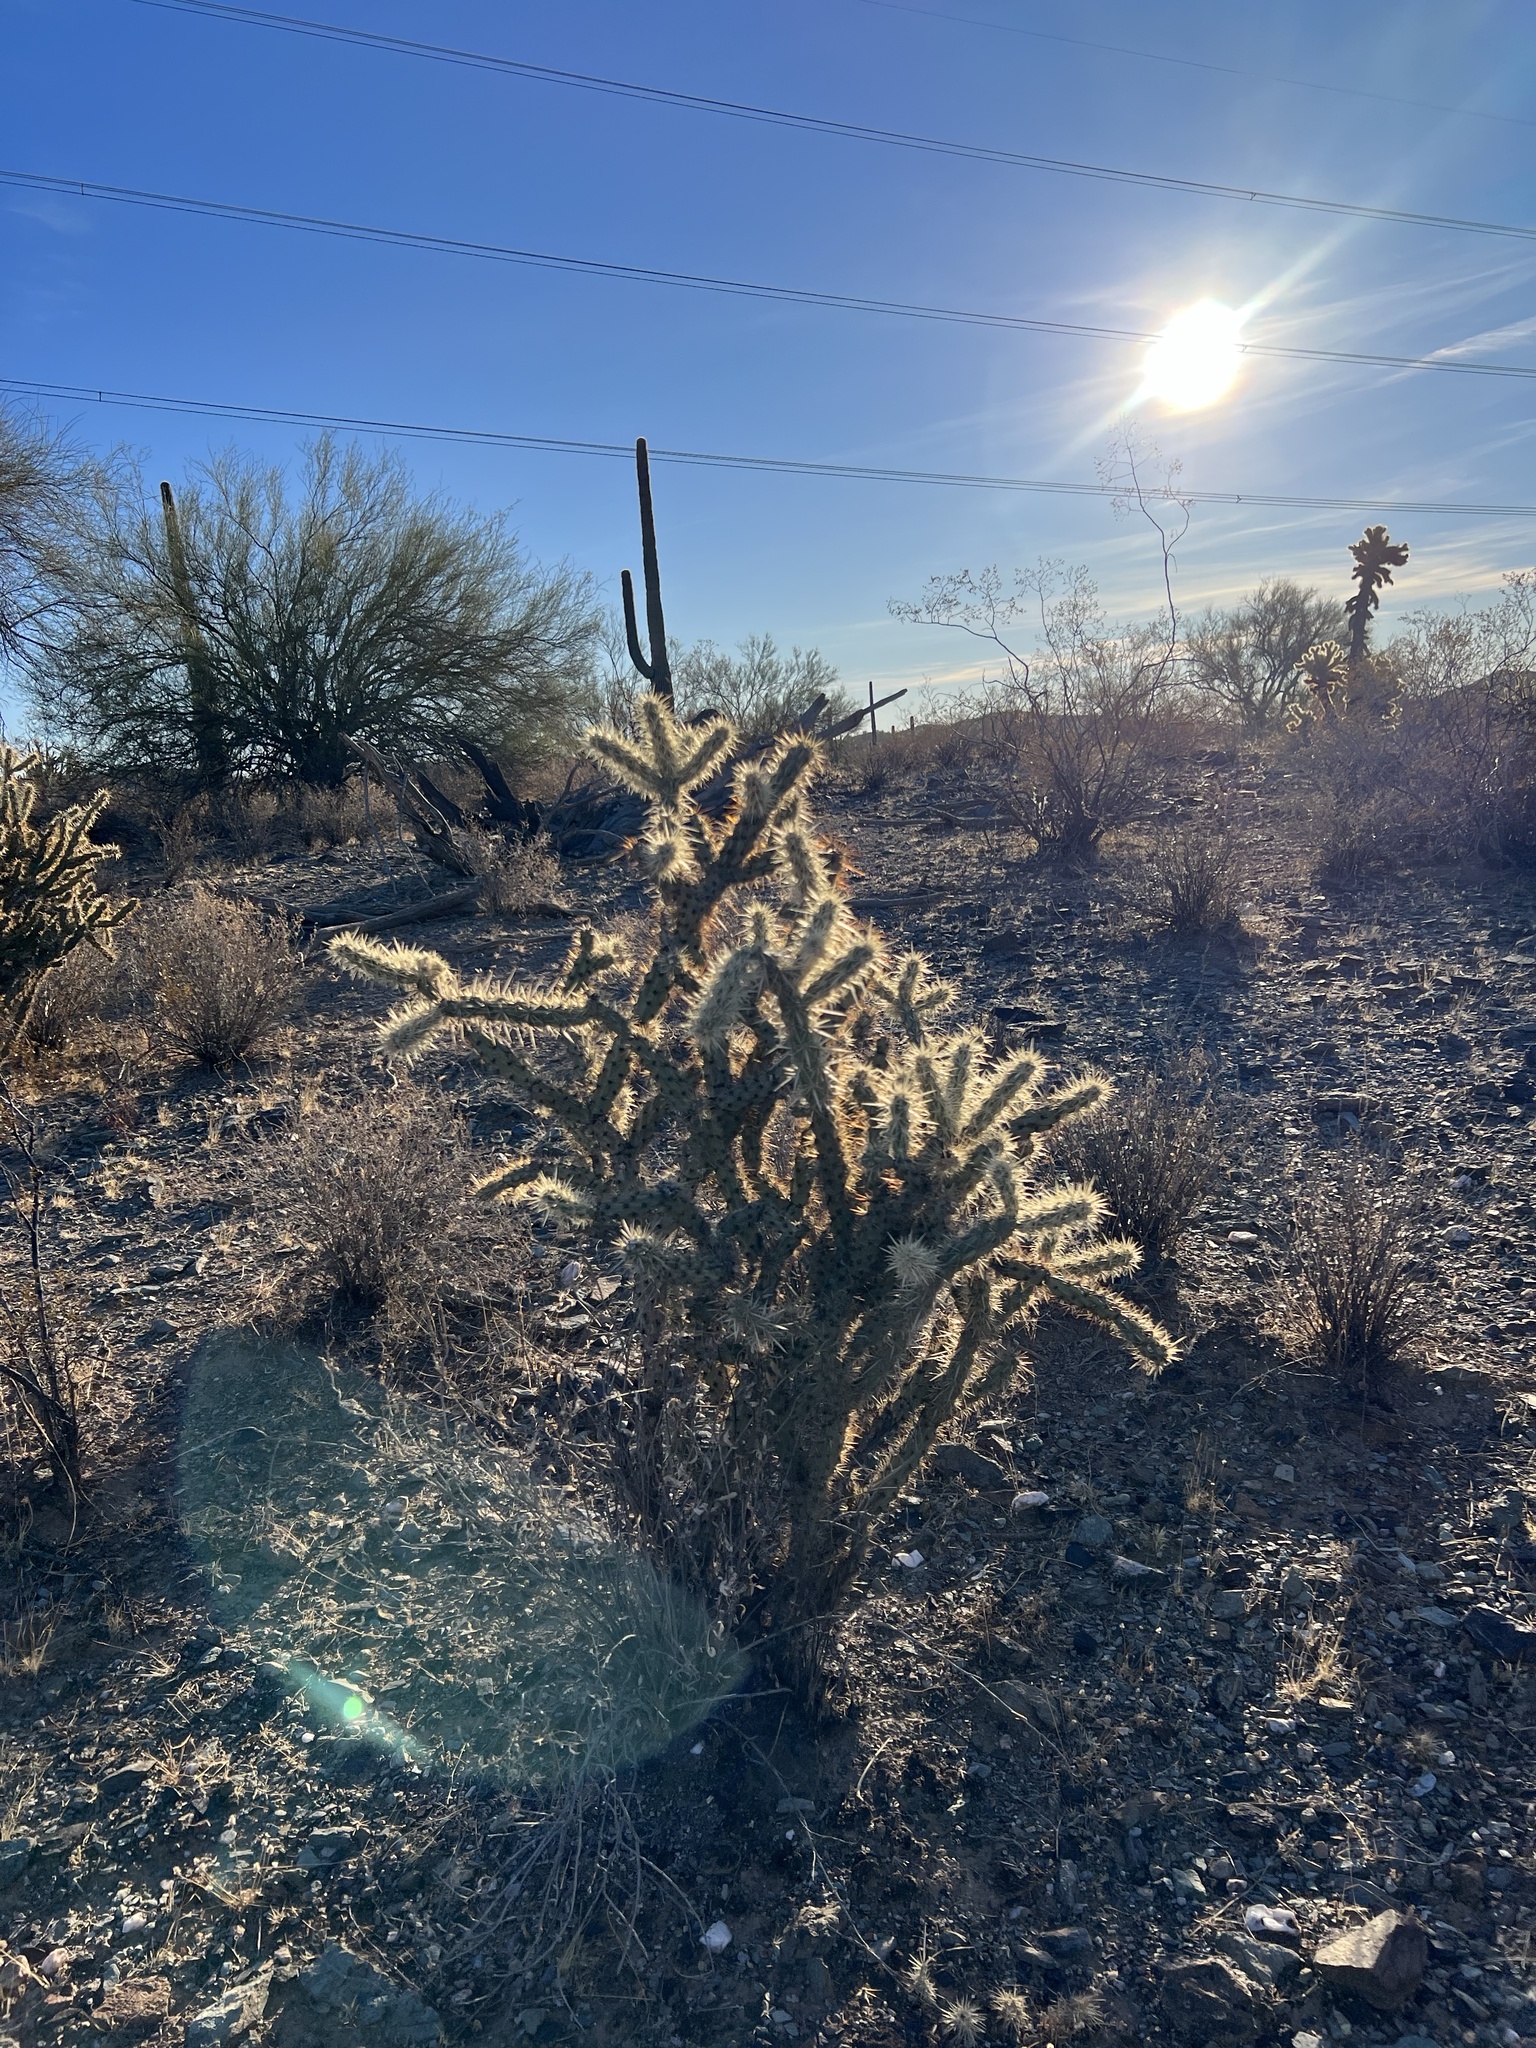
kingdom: Plantae
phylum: Tracheophyta
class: Magnoliopsida
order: Caryophyllales
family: Cactaceae
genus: Cylindropuntia
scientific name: Cylindropuntia acanthocarpa
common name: Buckhorn cholla
